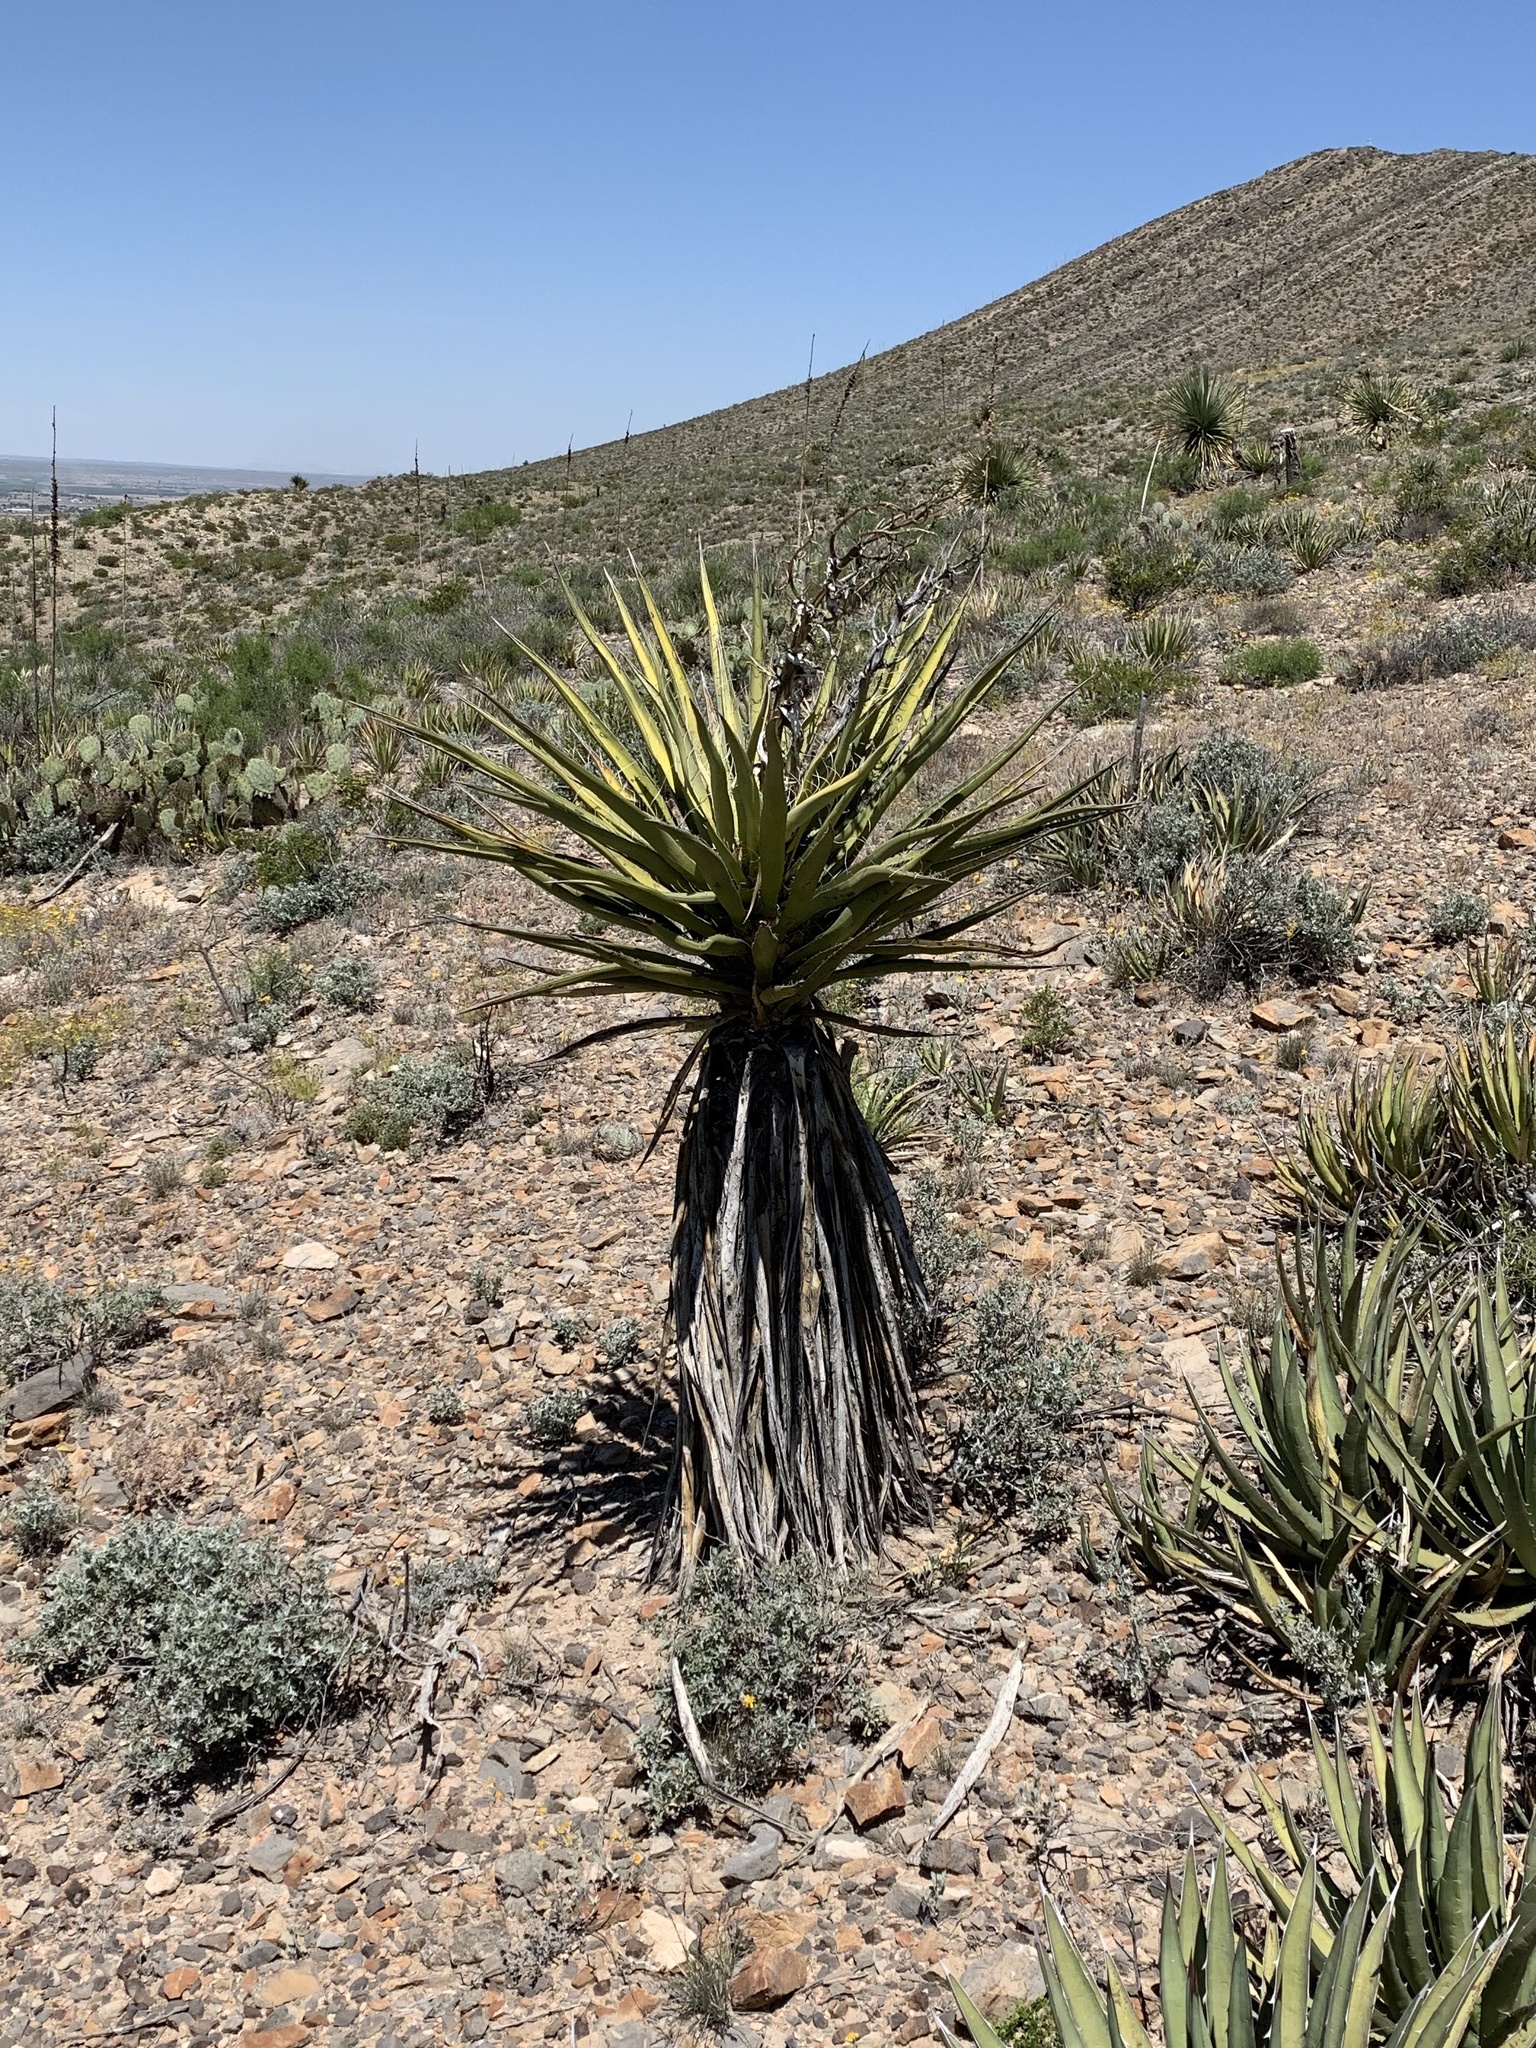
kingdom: Plantae
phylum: Tracheophyta
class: Liliopsida
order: Asparagales
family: Asparagaceae
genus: Yucca
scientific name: Yucca treculiana
